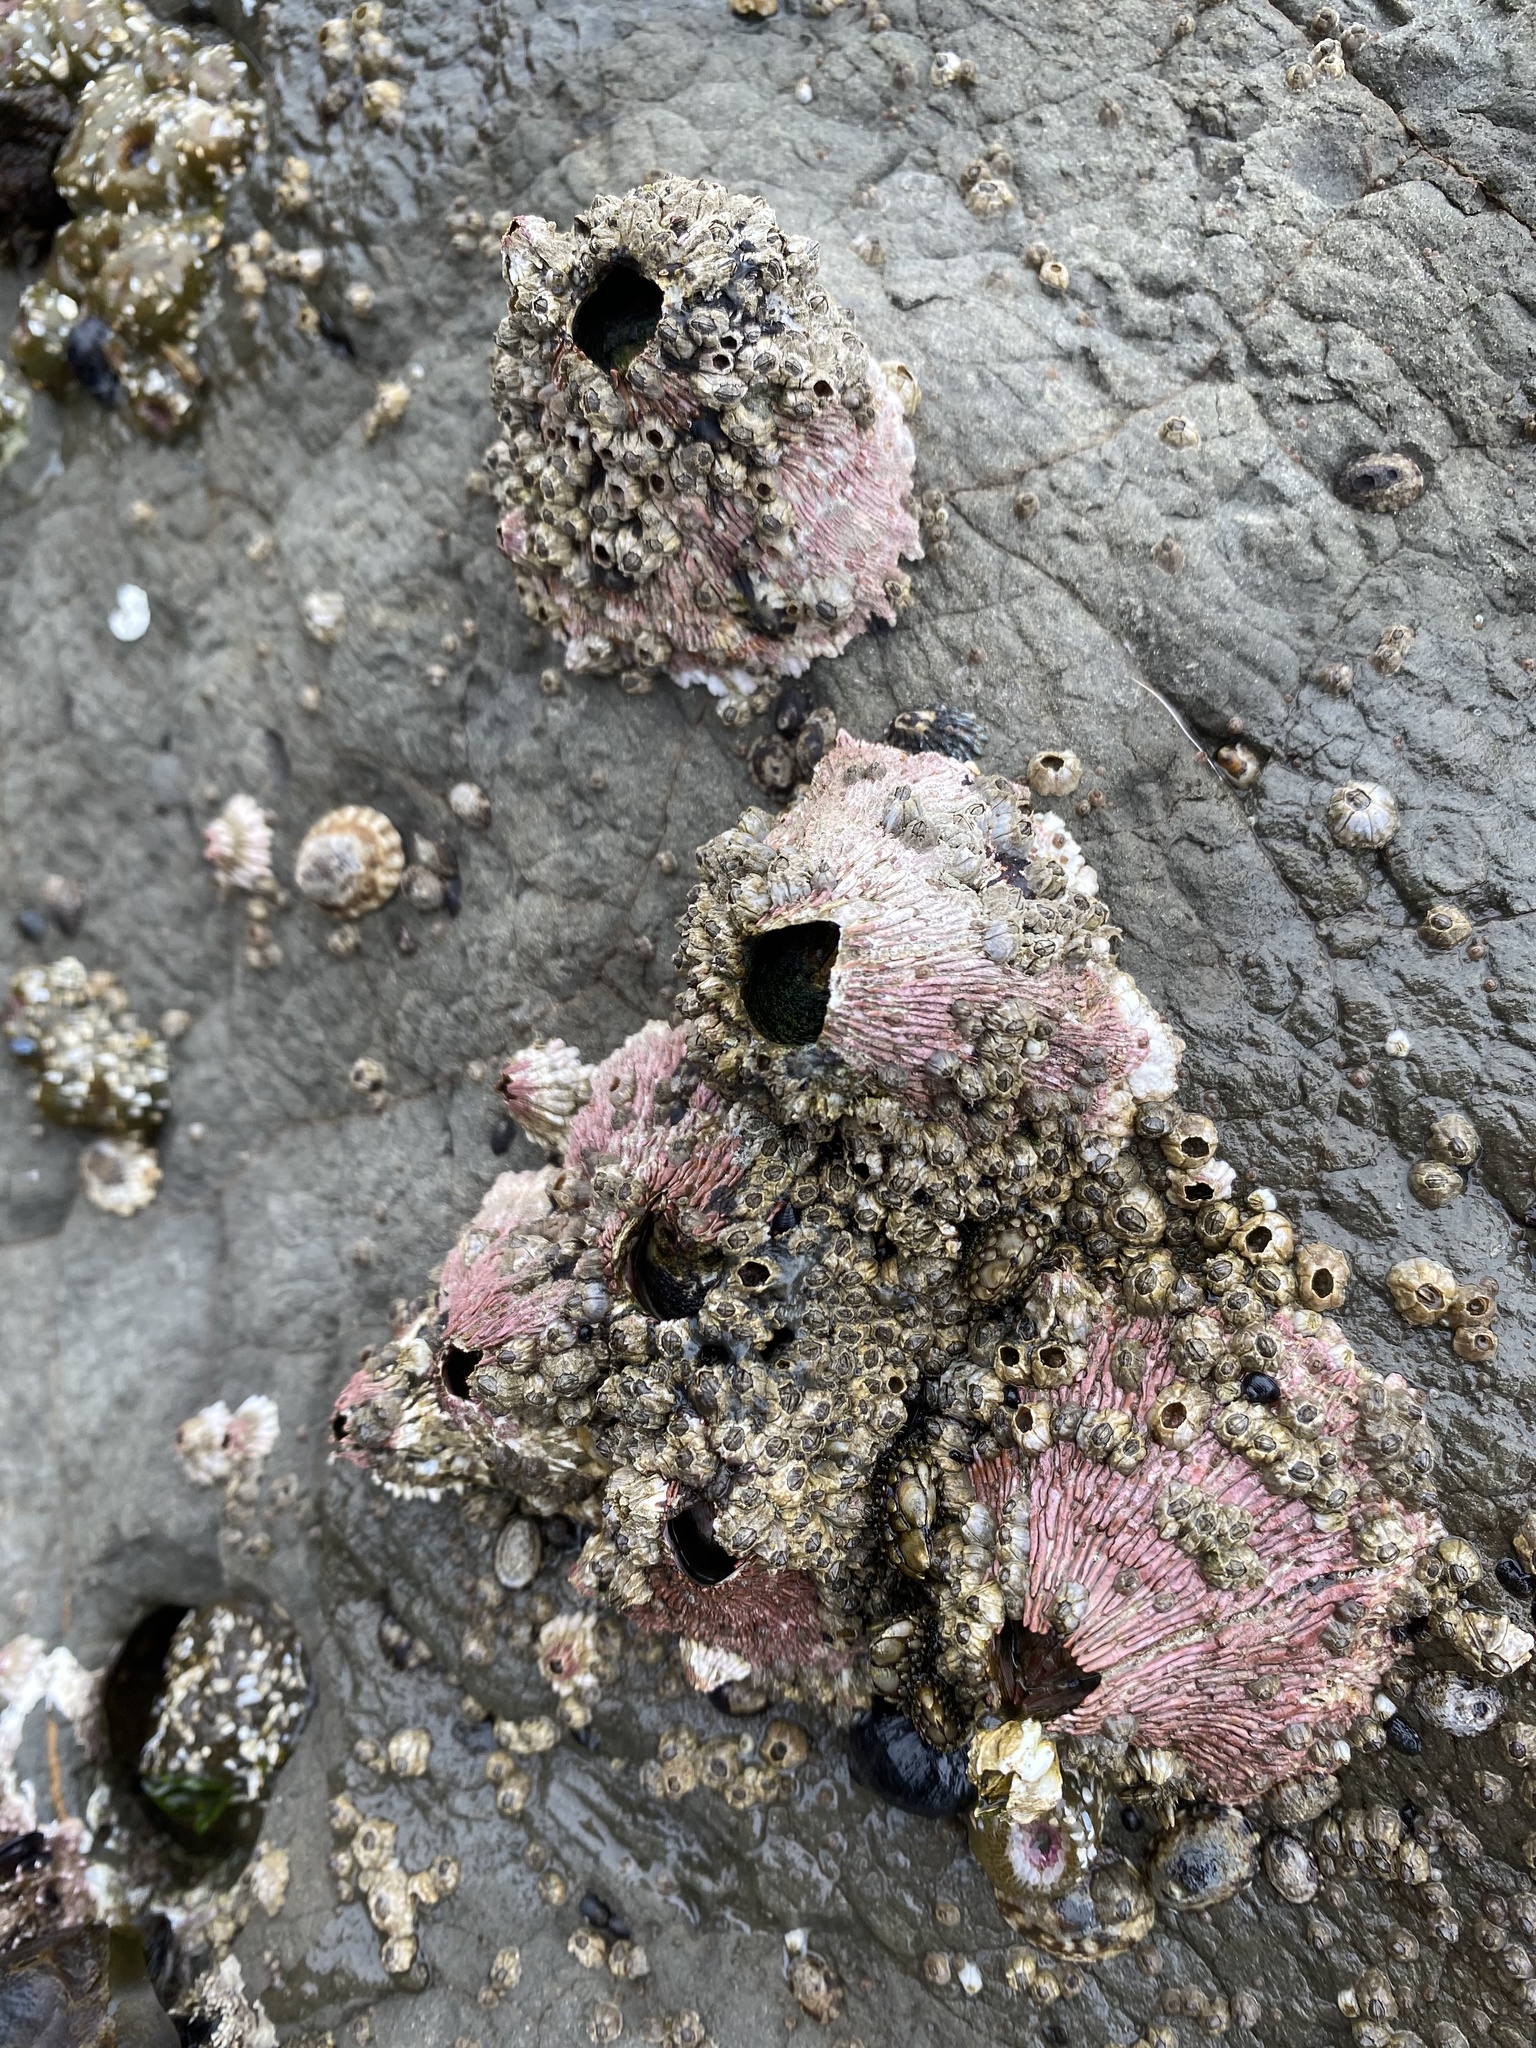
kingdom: Animalia
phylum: Arthropoda
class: Maxillopoda
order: Sessilia
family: Tetraclitidae
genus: Tetraclita
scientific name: Tetraclita rubescens
